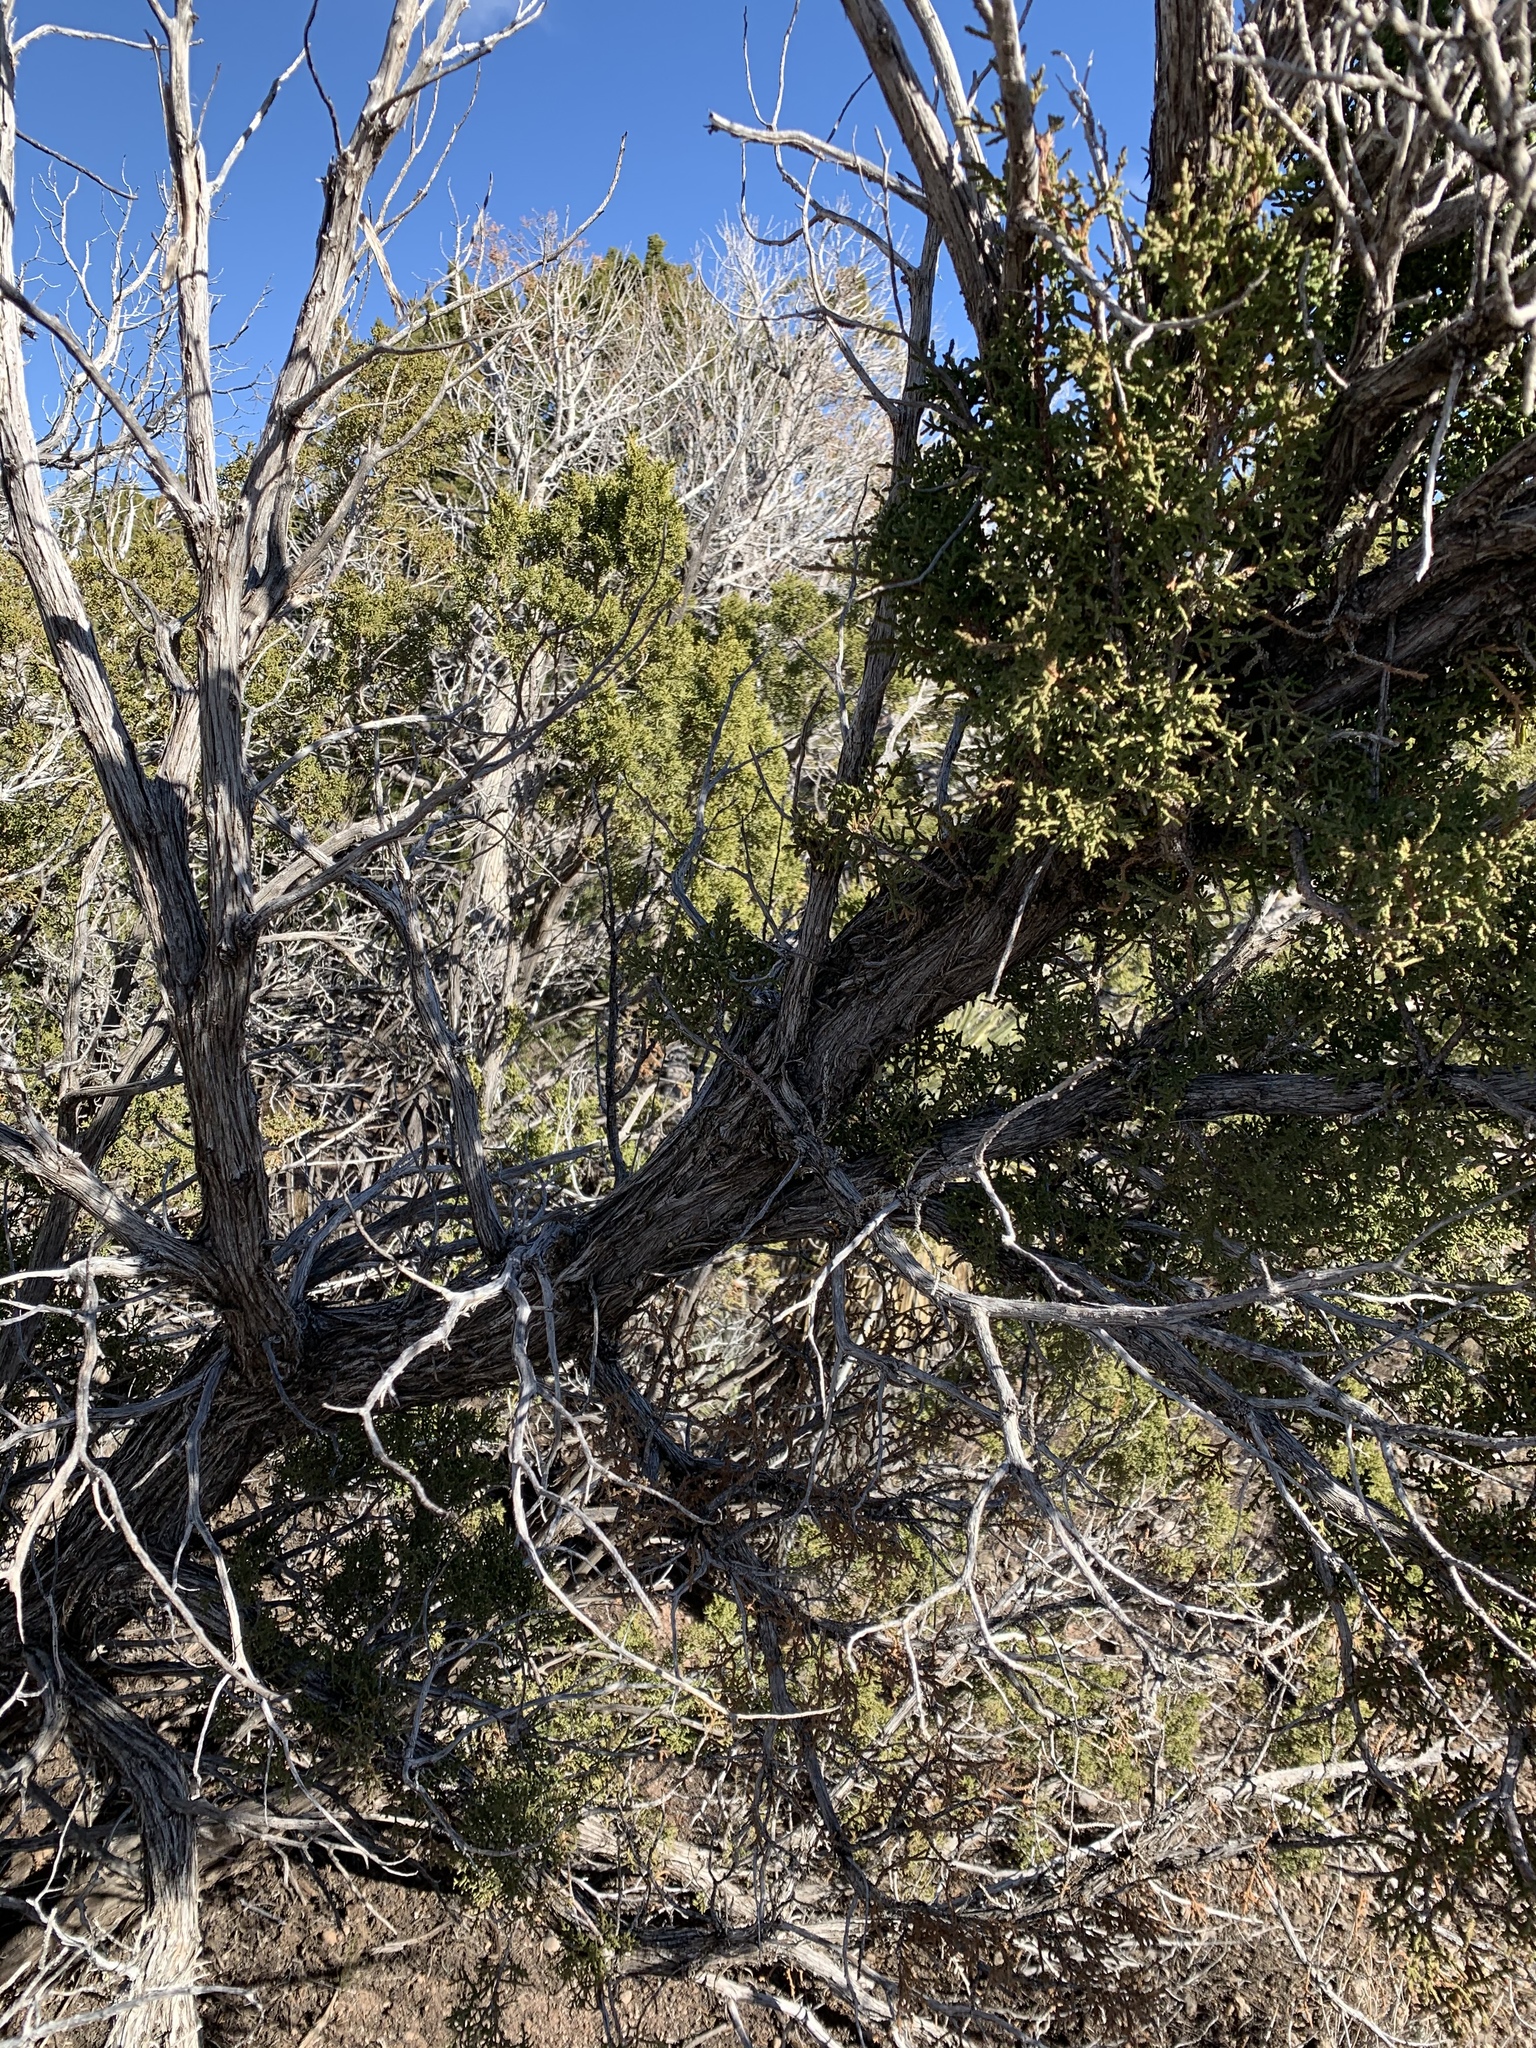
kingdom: Plantae
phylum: Tracheophyta
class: Pinopsida
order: Pinales
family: Cupressaceae
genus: Juniperus
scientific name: Juniperus monosperma
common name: One-seed juniper
